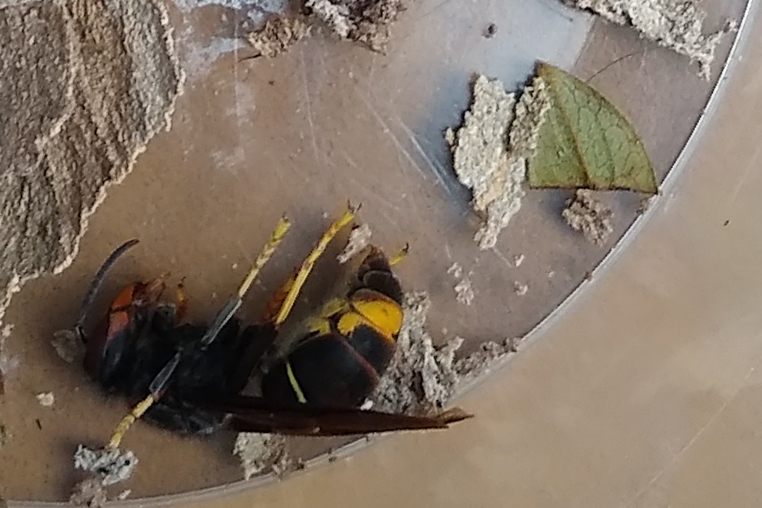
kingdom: Animalia
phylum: Arthropoda
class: Insecta
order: Hymenoptera
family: Vespidae
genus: Vespa
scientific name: Vespa velutina
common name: Asian hornet
